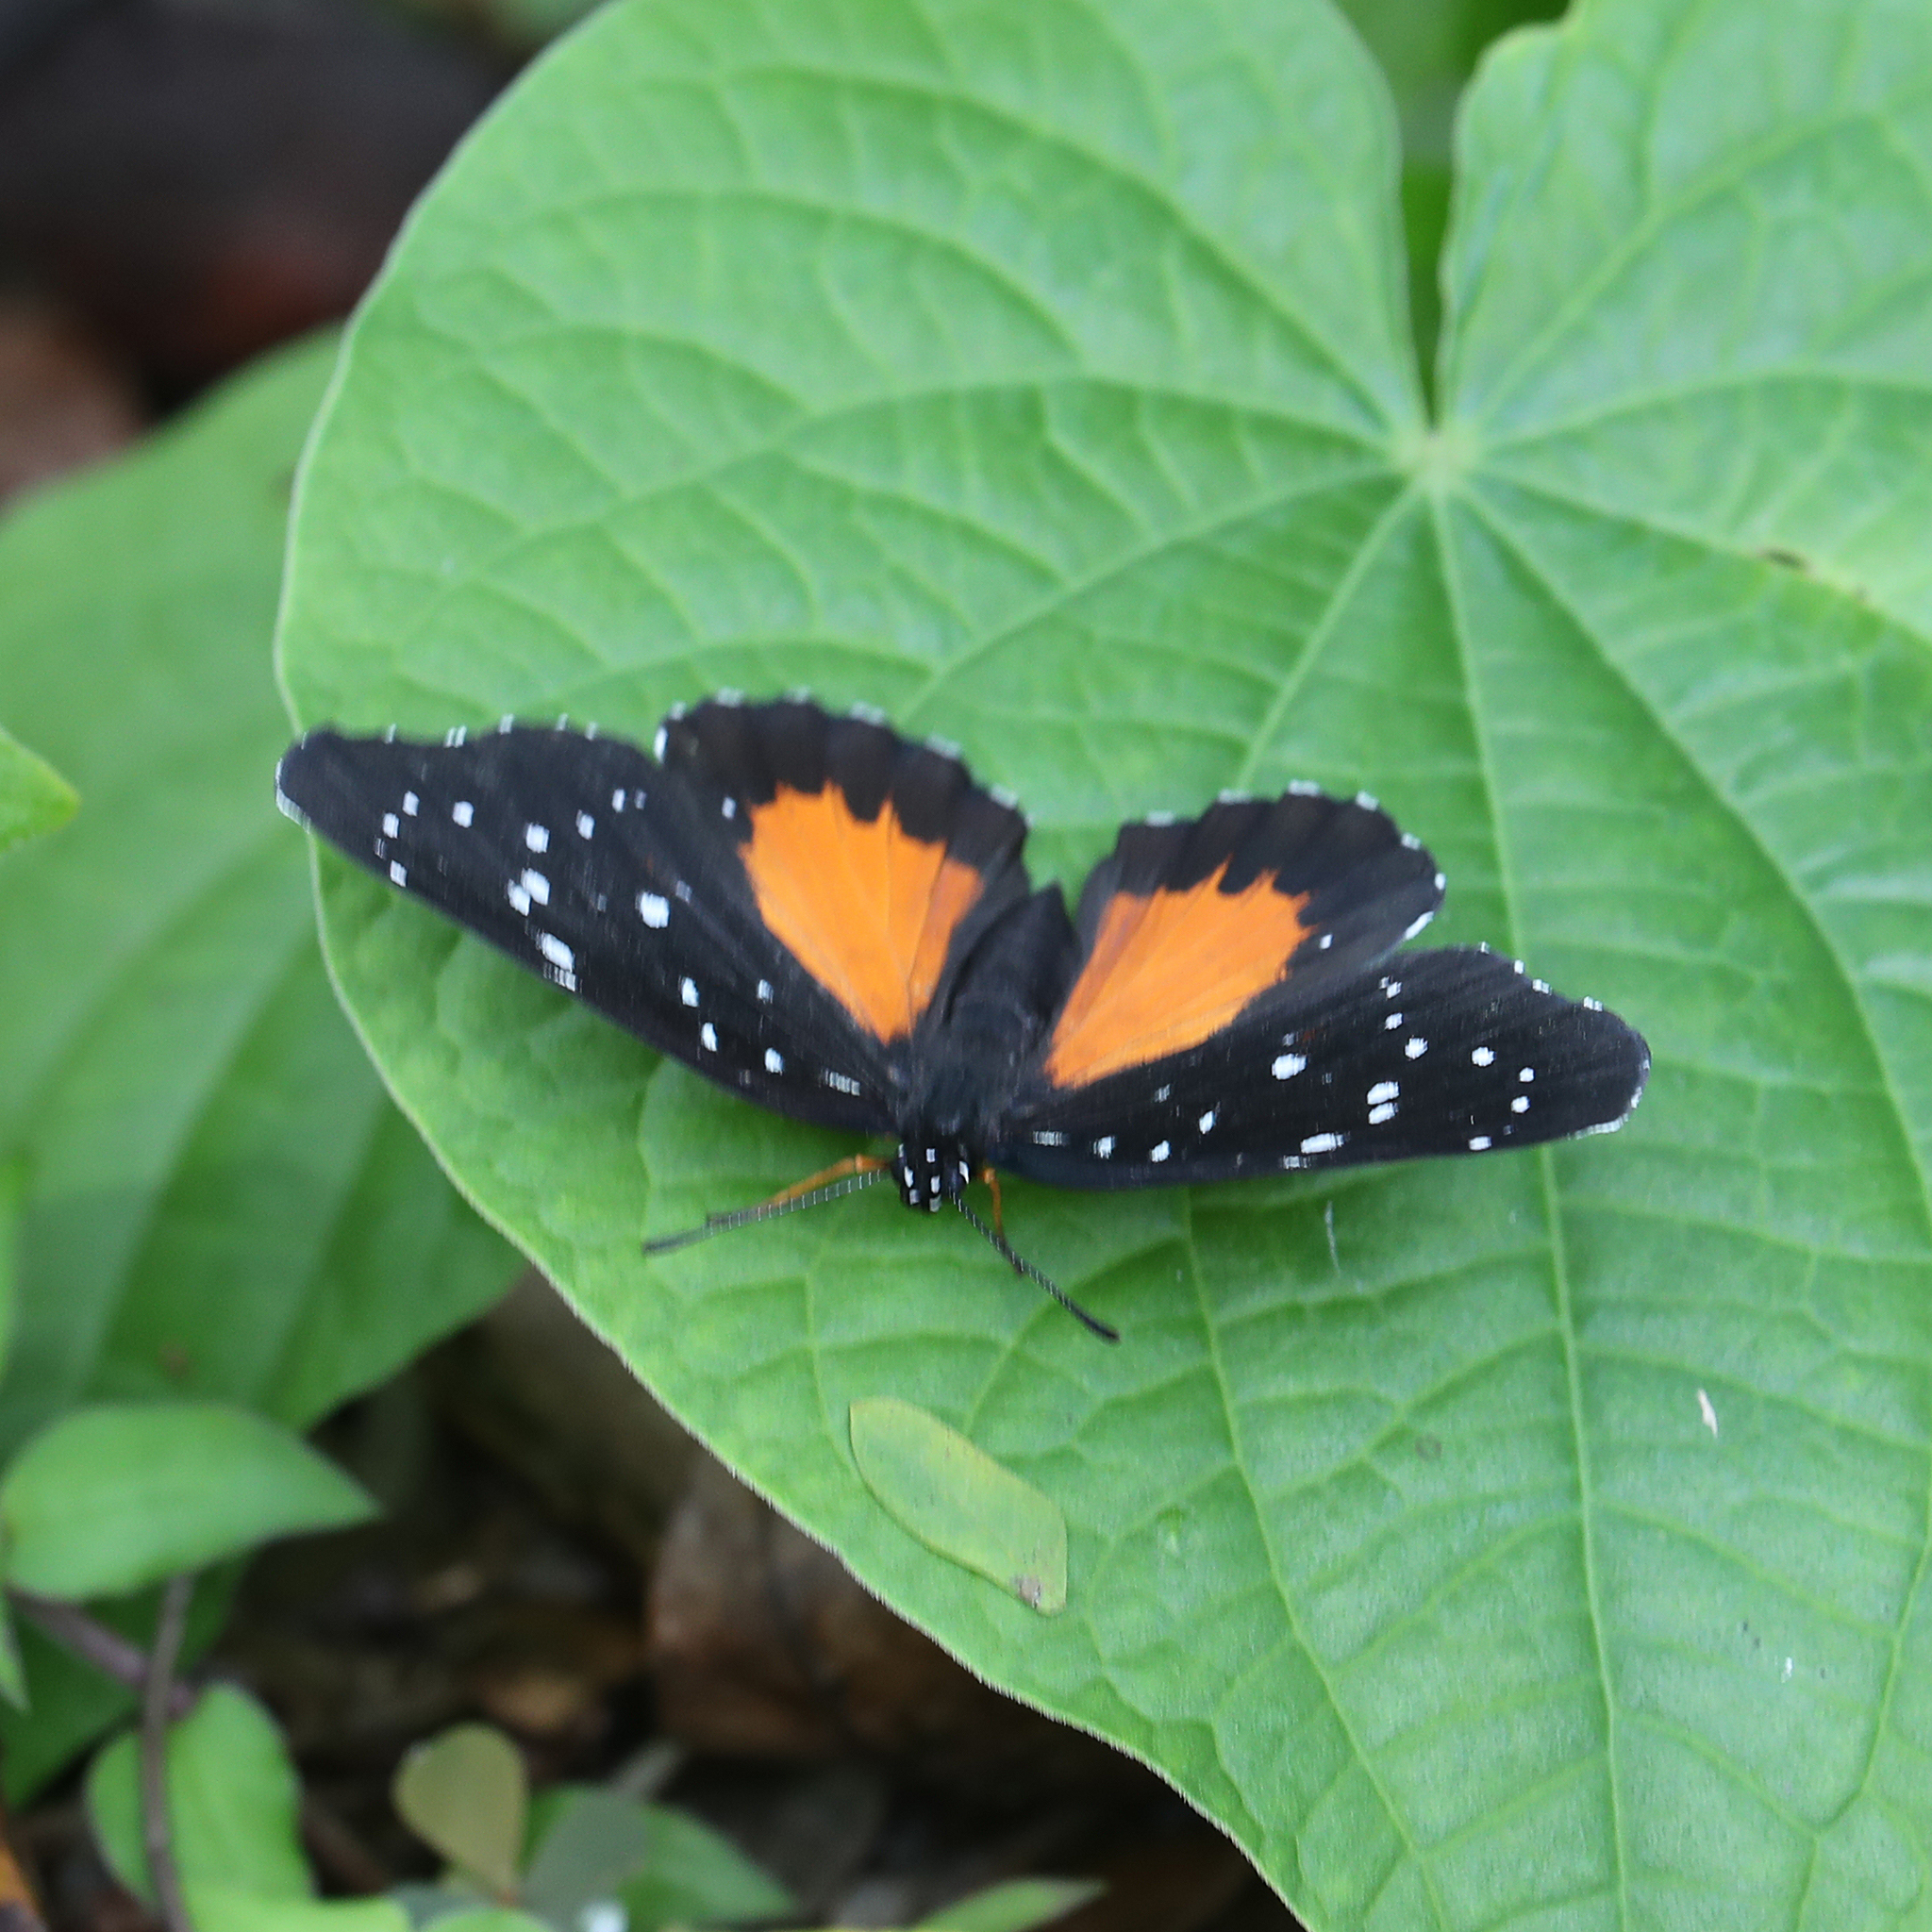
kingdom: Animalia
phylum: Arthropoda
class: Insecta
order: Lepidoptera
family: Nymphalidae
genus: Chlosyne
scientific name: Chlosyne janais
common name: Crimson patch
